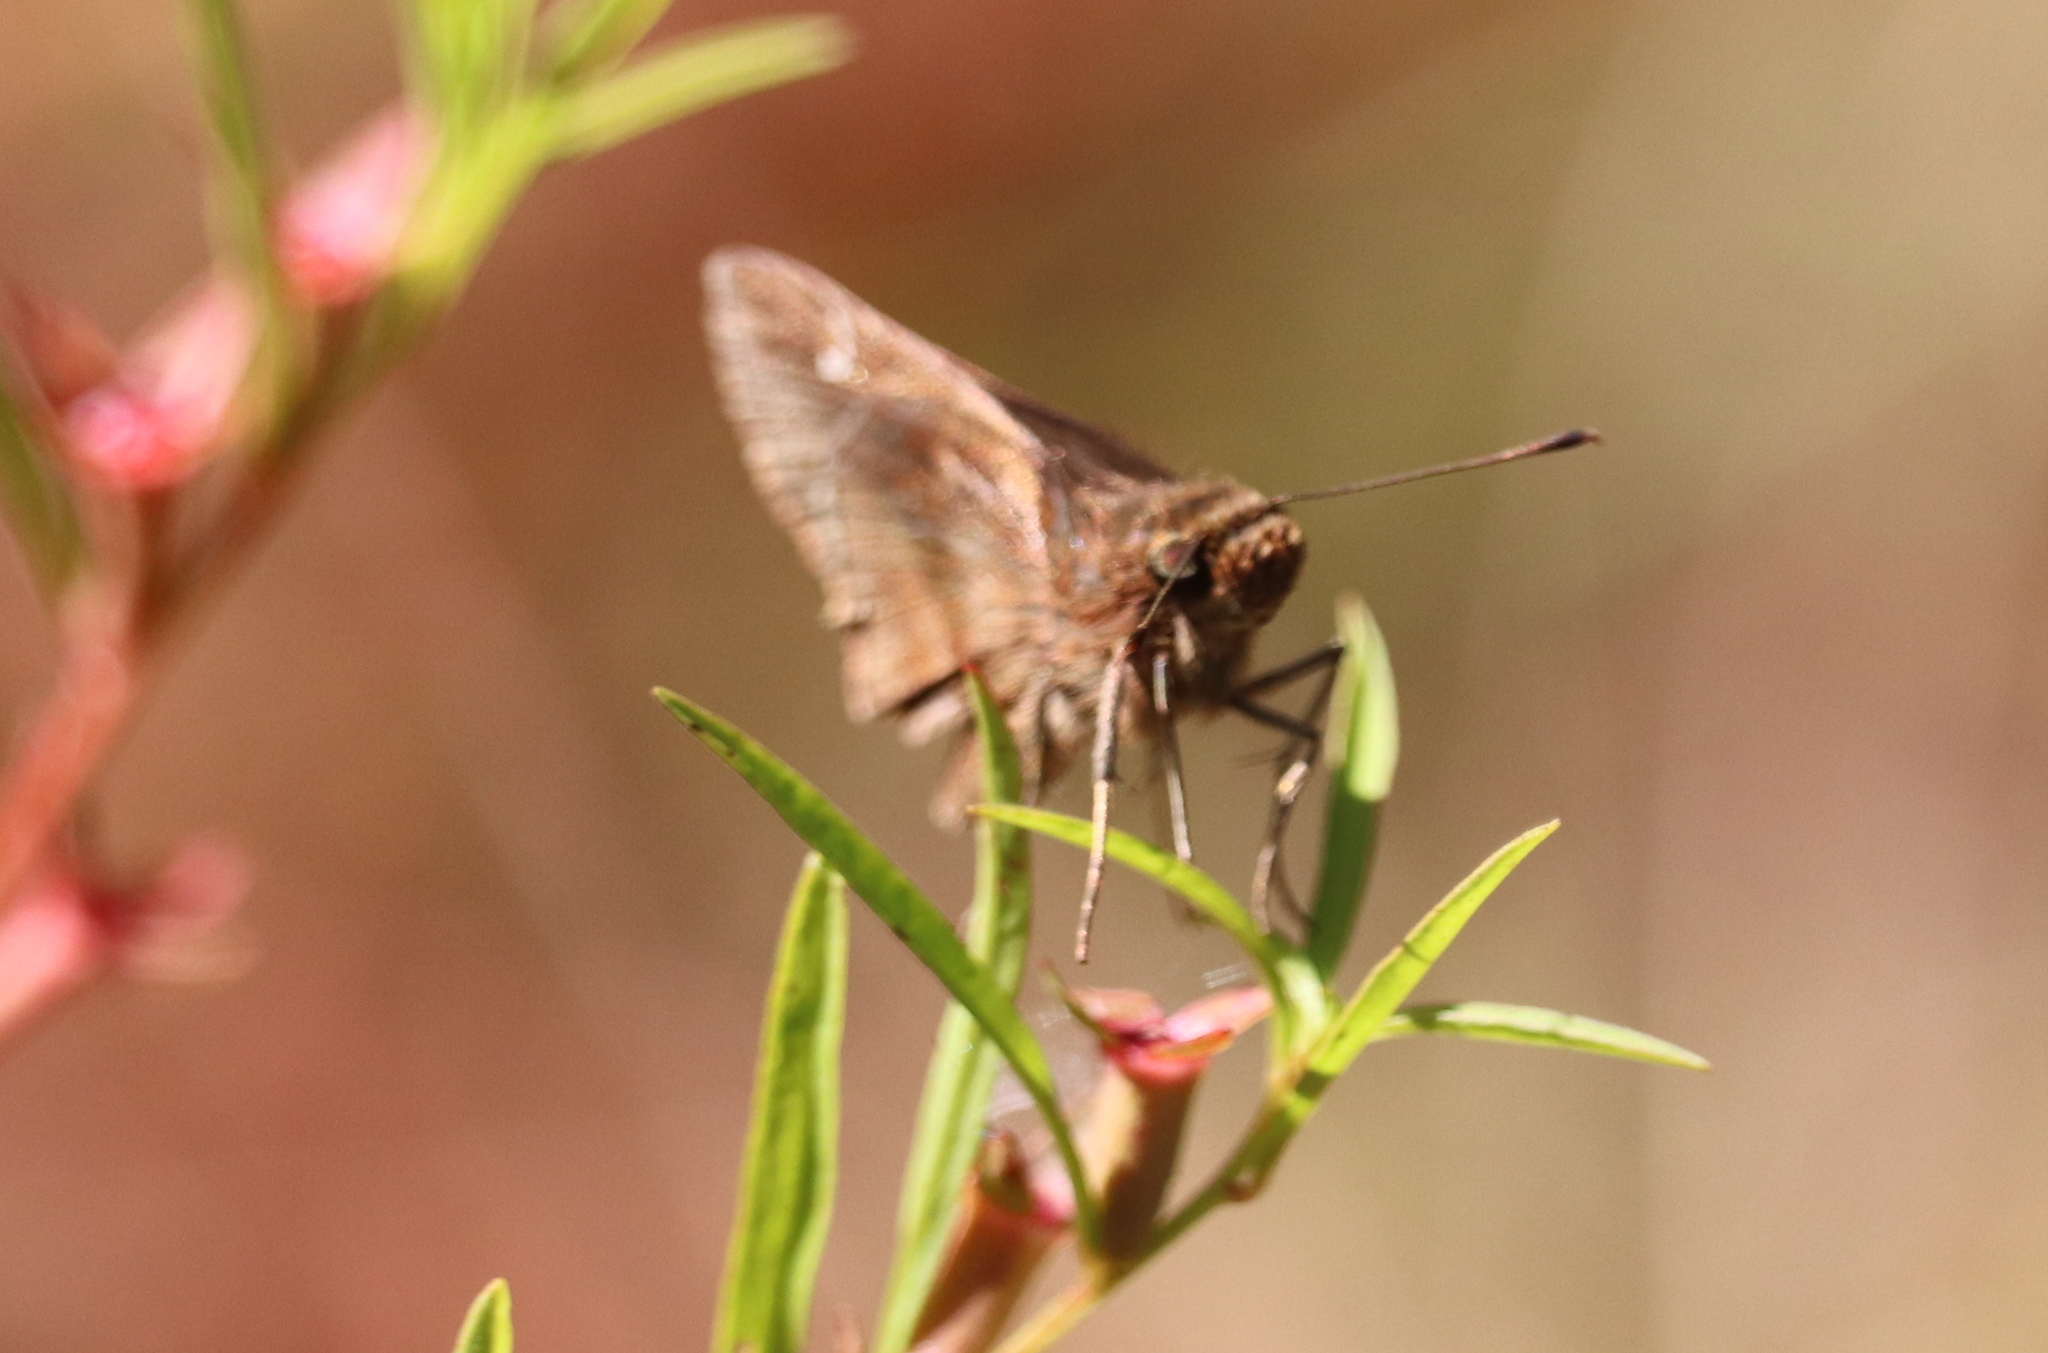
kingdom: Animalia
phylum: Arthropoda
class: Insecta
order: Lepidoptera
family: Hesperiidae
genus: Lerema
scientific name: Lerema accius
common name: Clouded skipper
